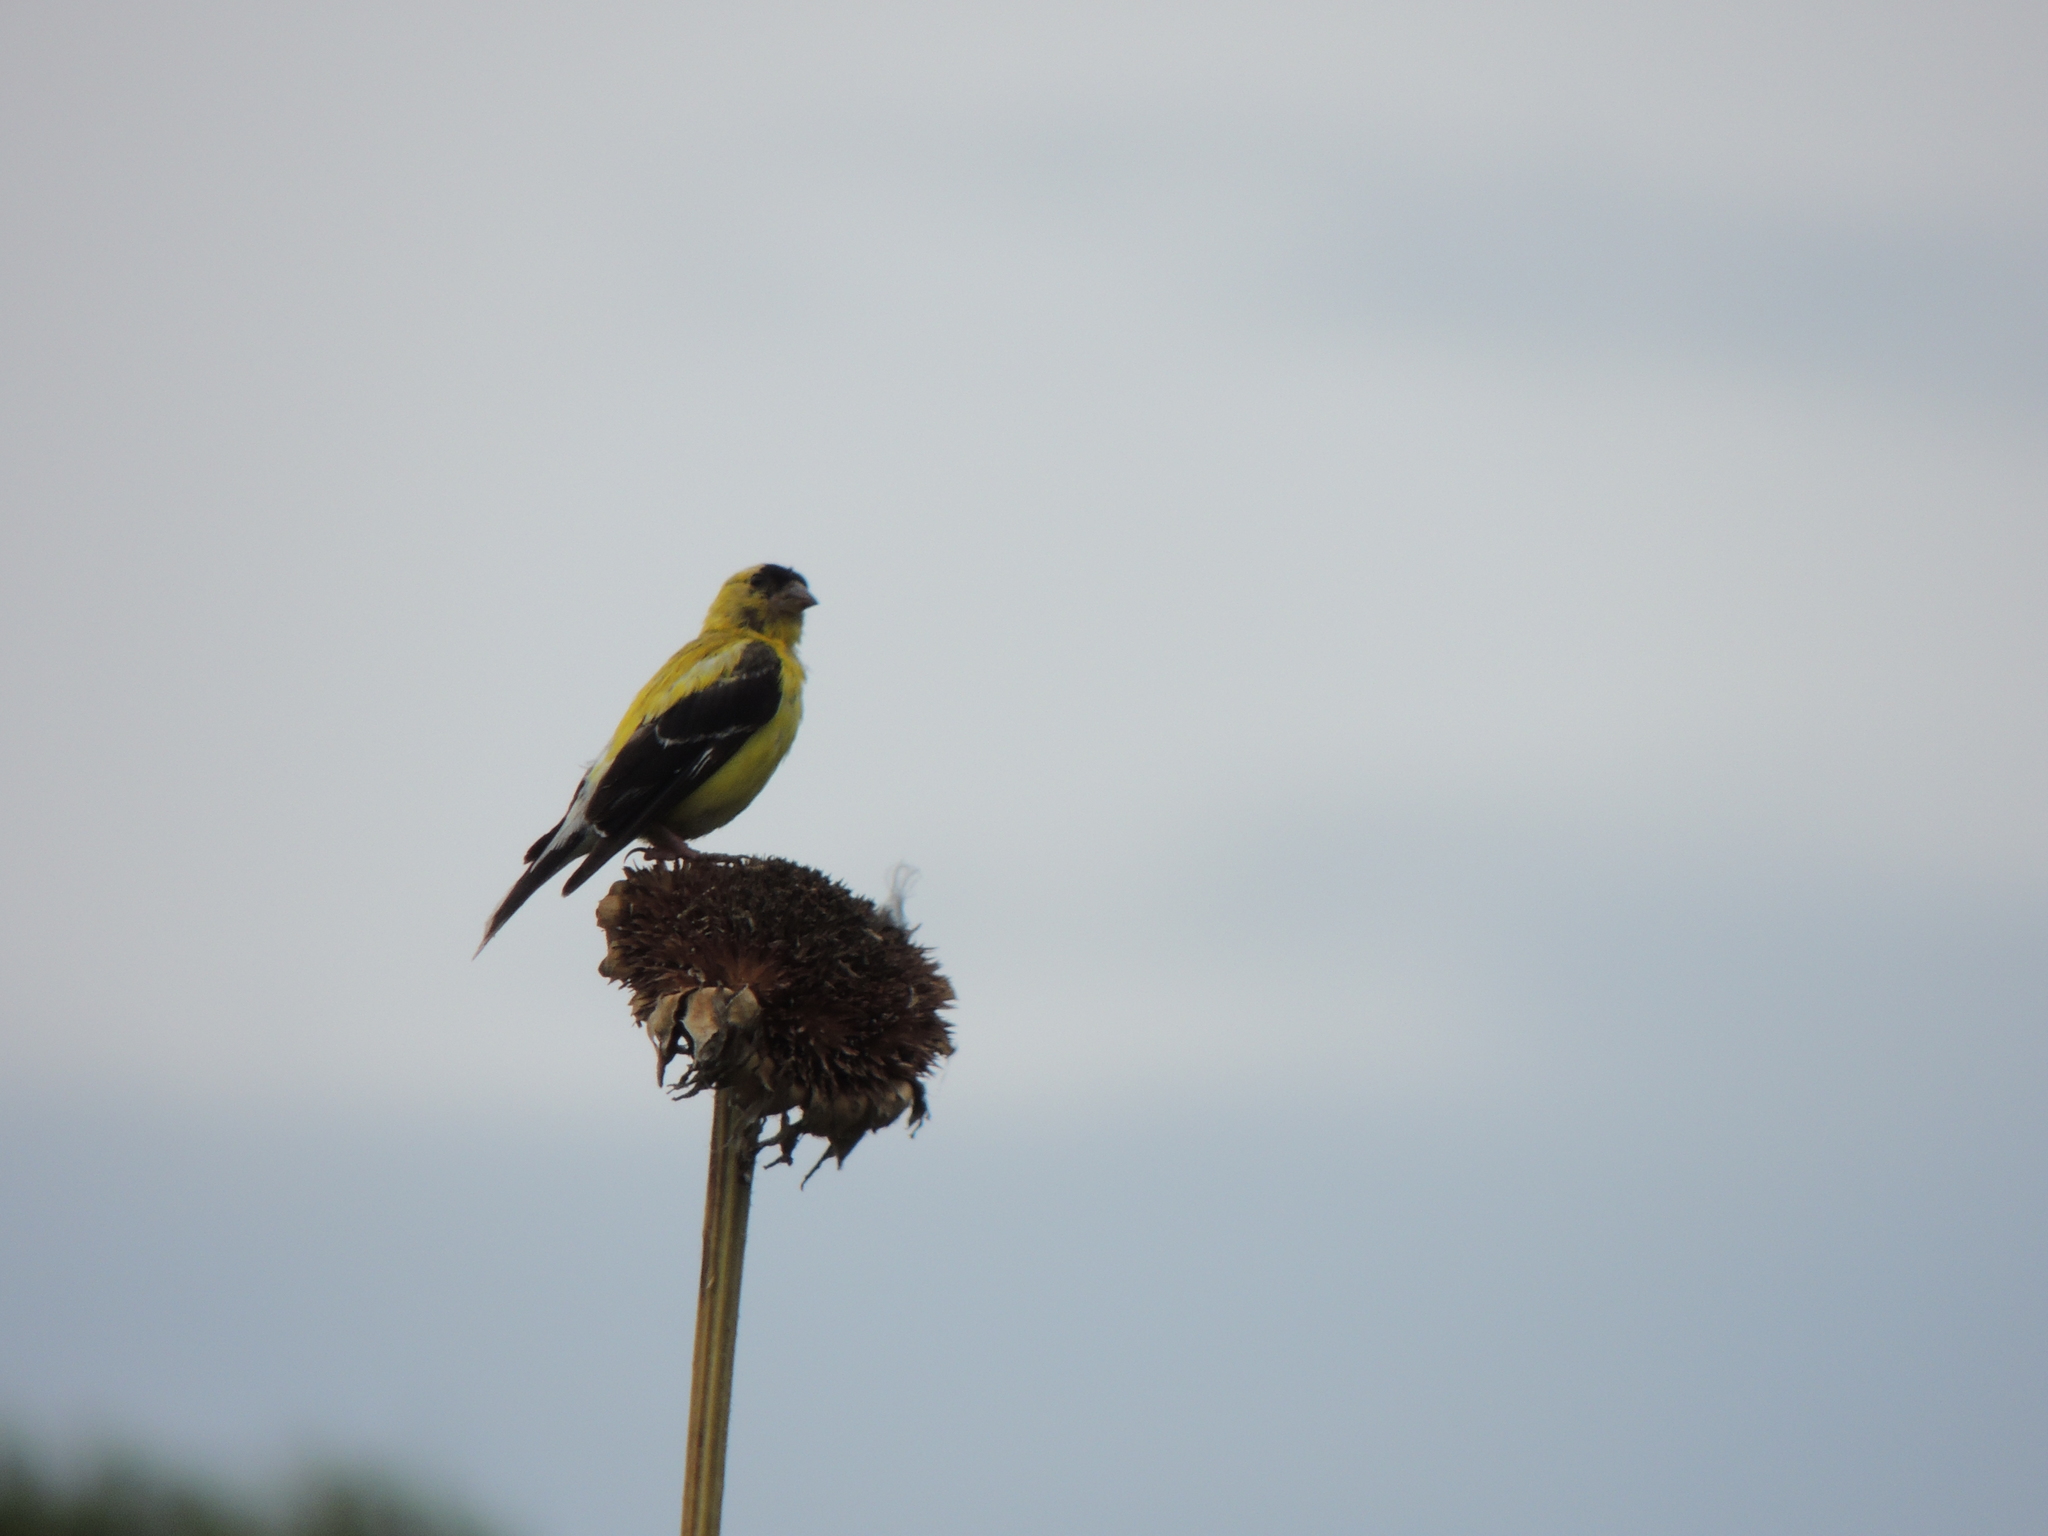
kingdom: Animalia
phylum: Chordata
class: Aves
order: Passeriformes
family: Fringillidae
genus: Spinus
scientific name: Spinus tristis
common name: American goldfinch
